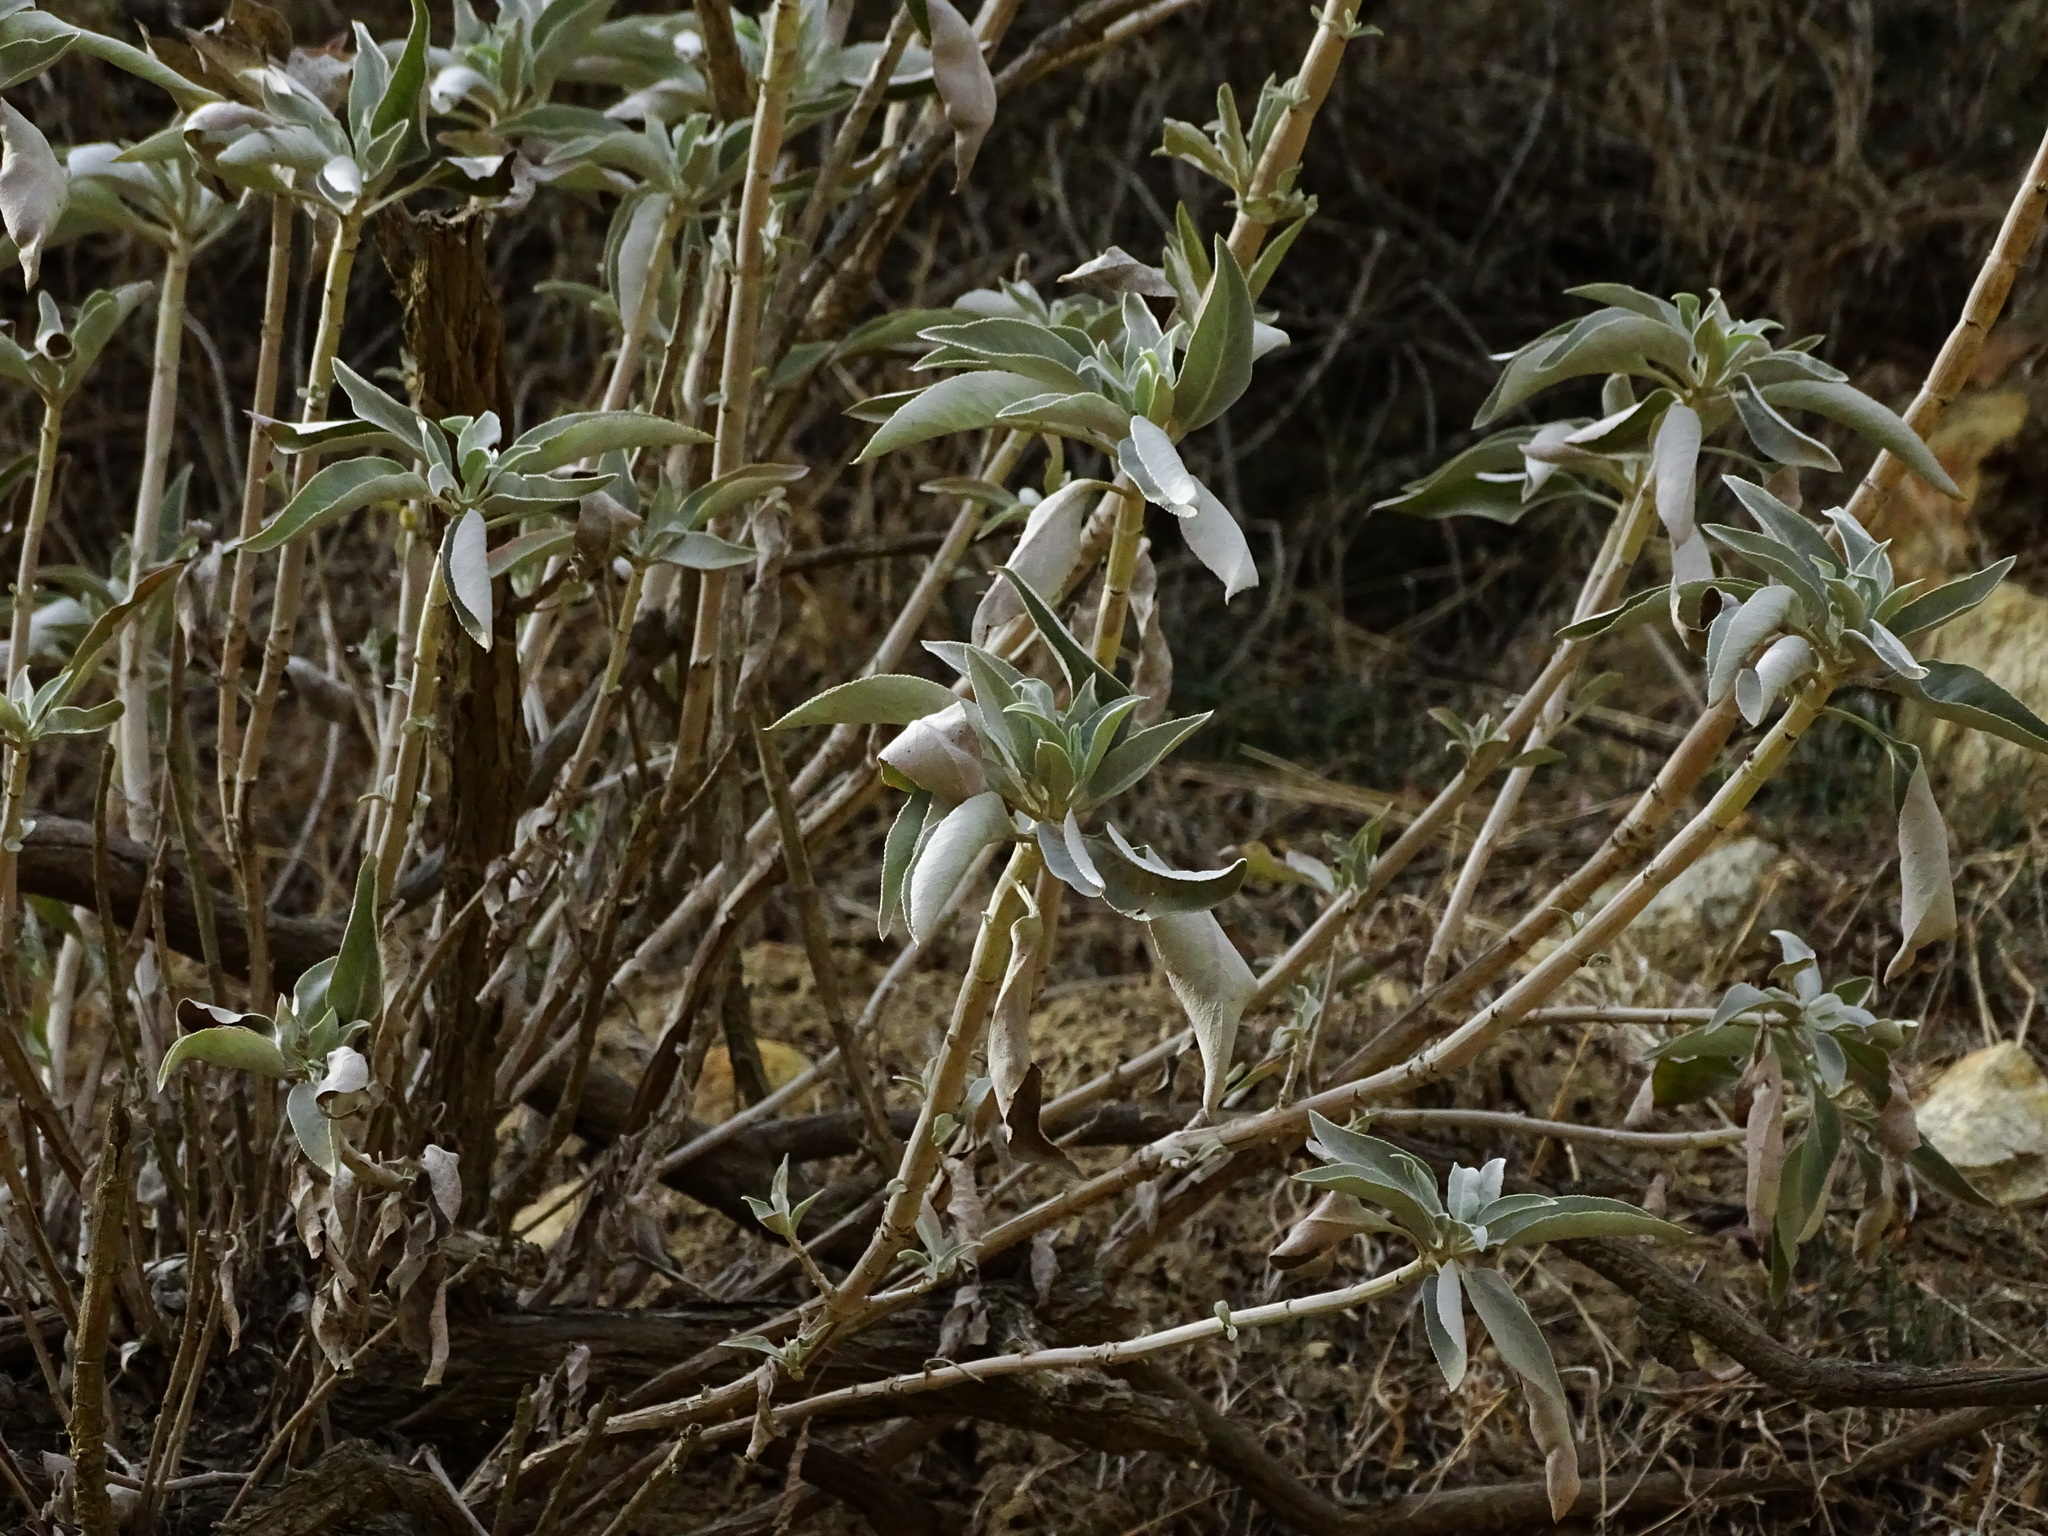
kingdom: Plantae
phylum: Tracheophyta
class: Magnoliopsida
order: Lamiales
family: Lamiaceae
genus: Salvia
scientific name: Salvia apiana
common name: White sage
